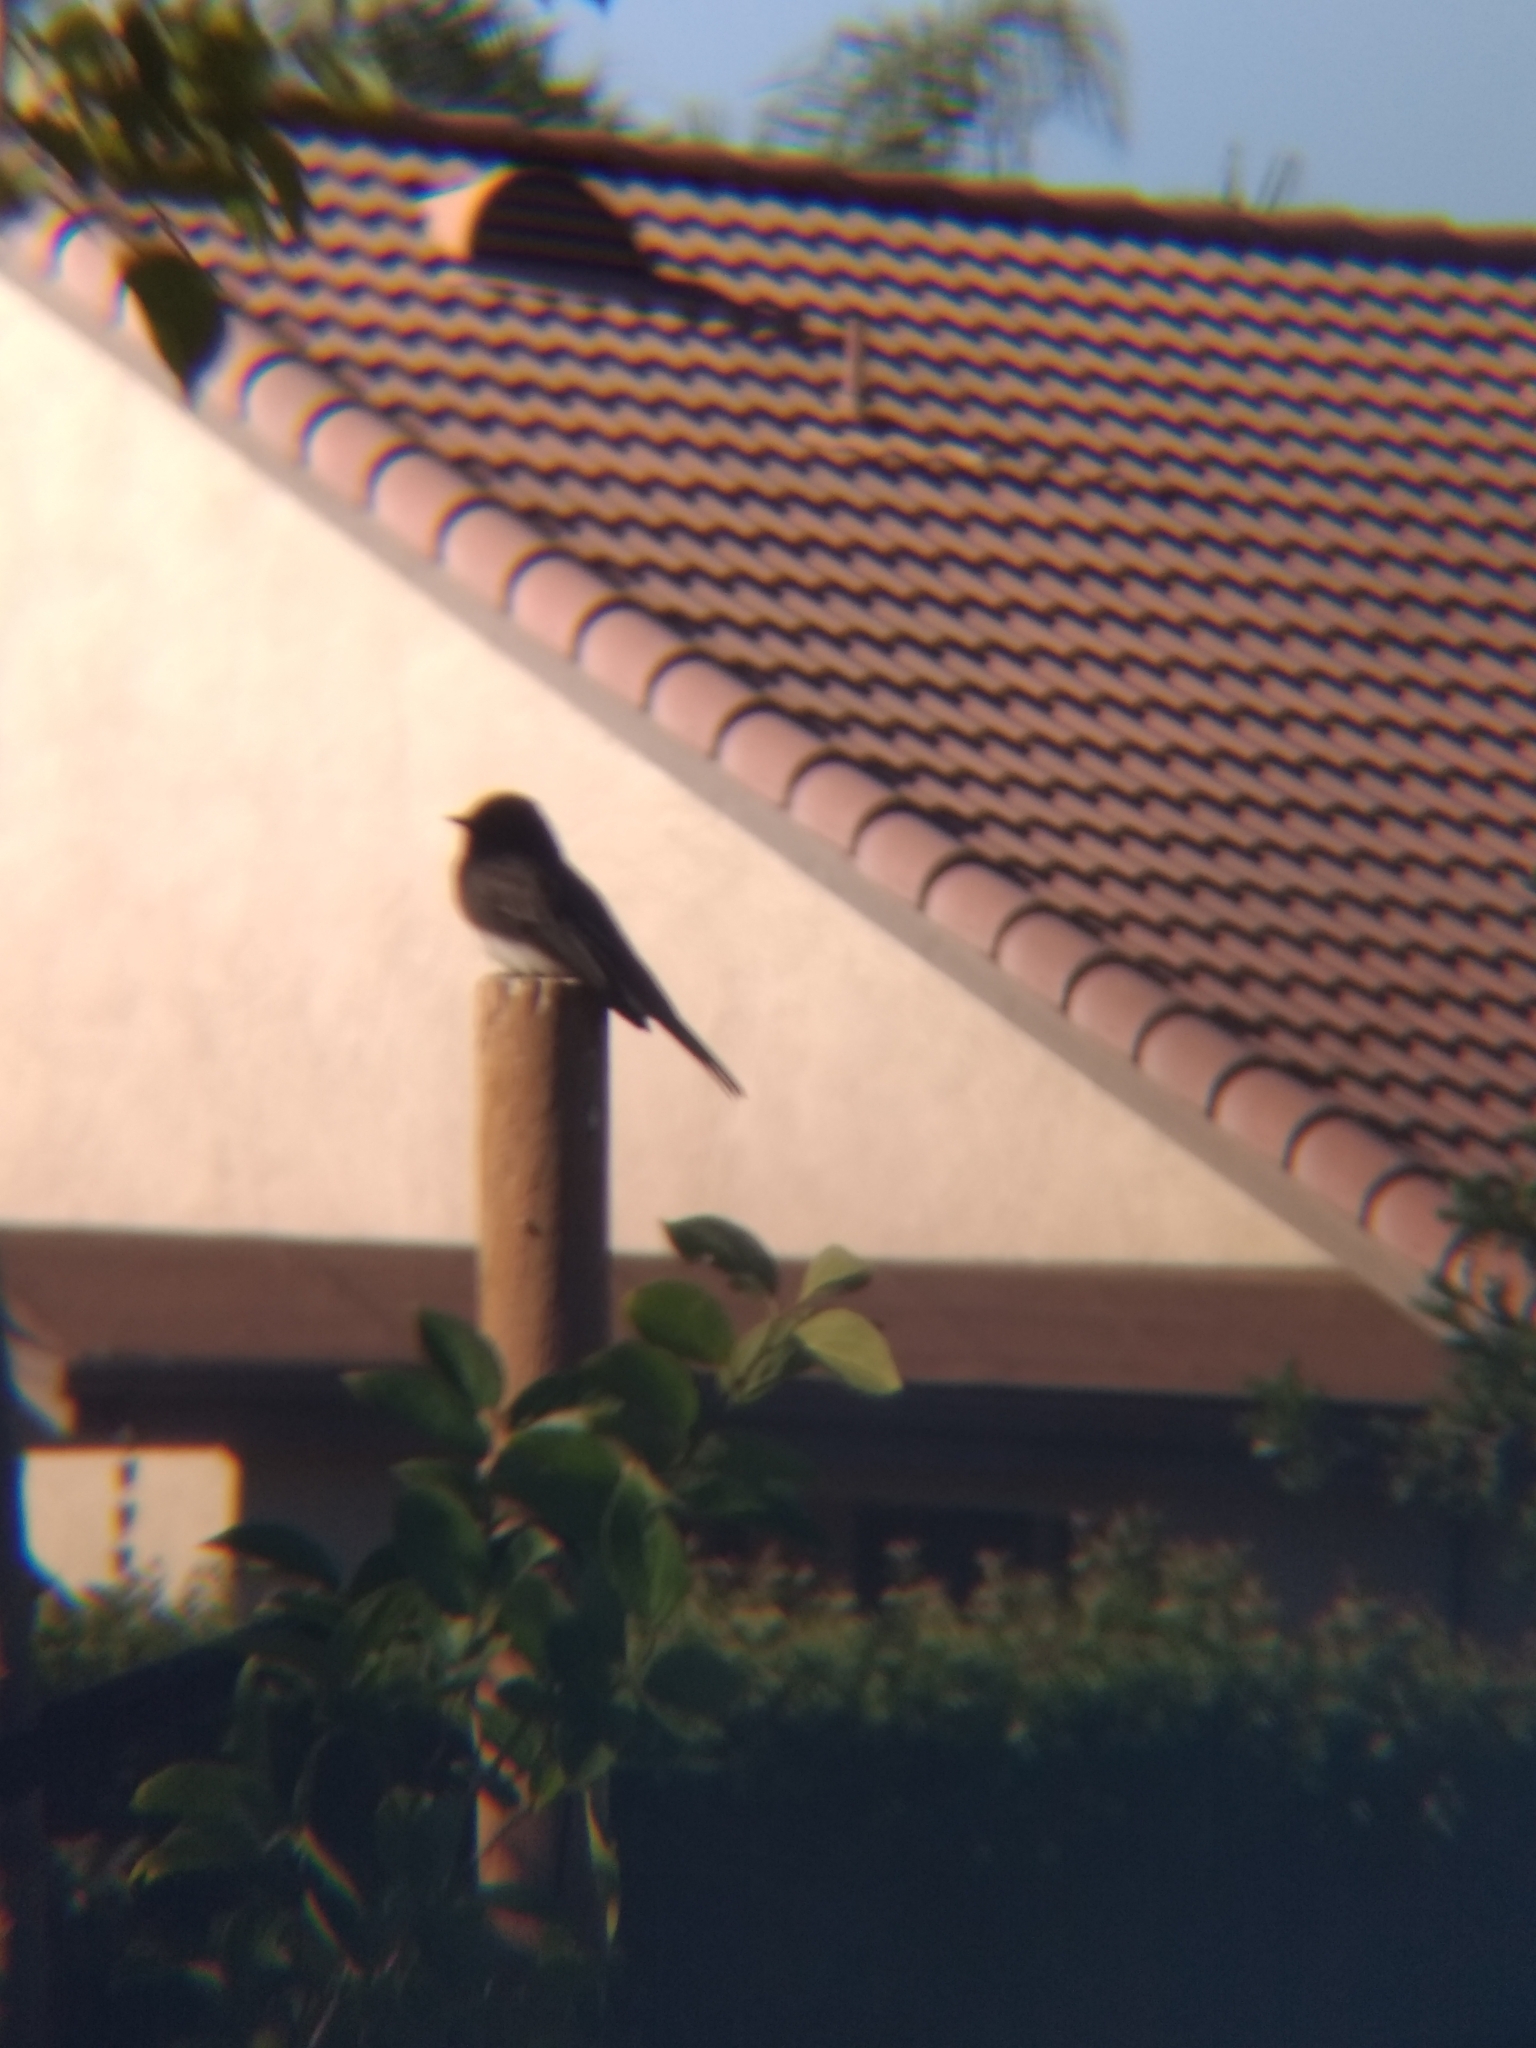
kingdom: Animalia
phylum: Chordata
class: Aves
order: Passeriformes
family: Tyrannidae
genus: Sayornis
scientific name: Sayornis nigricans
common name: Black phoebe
